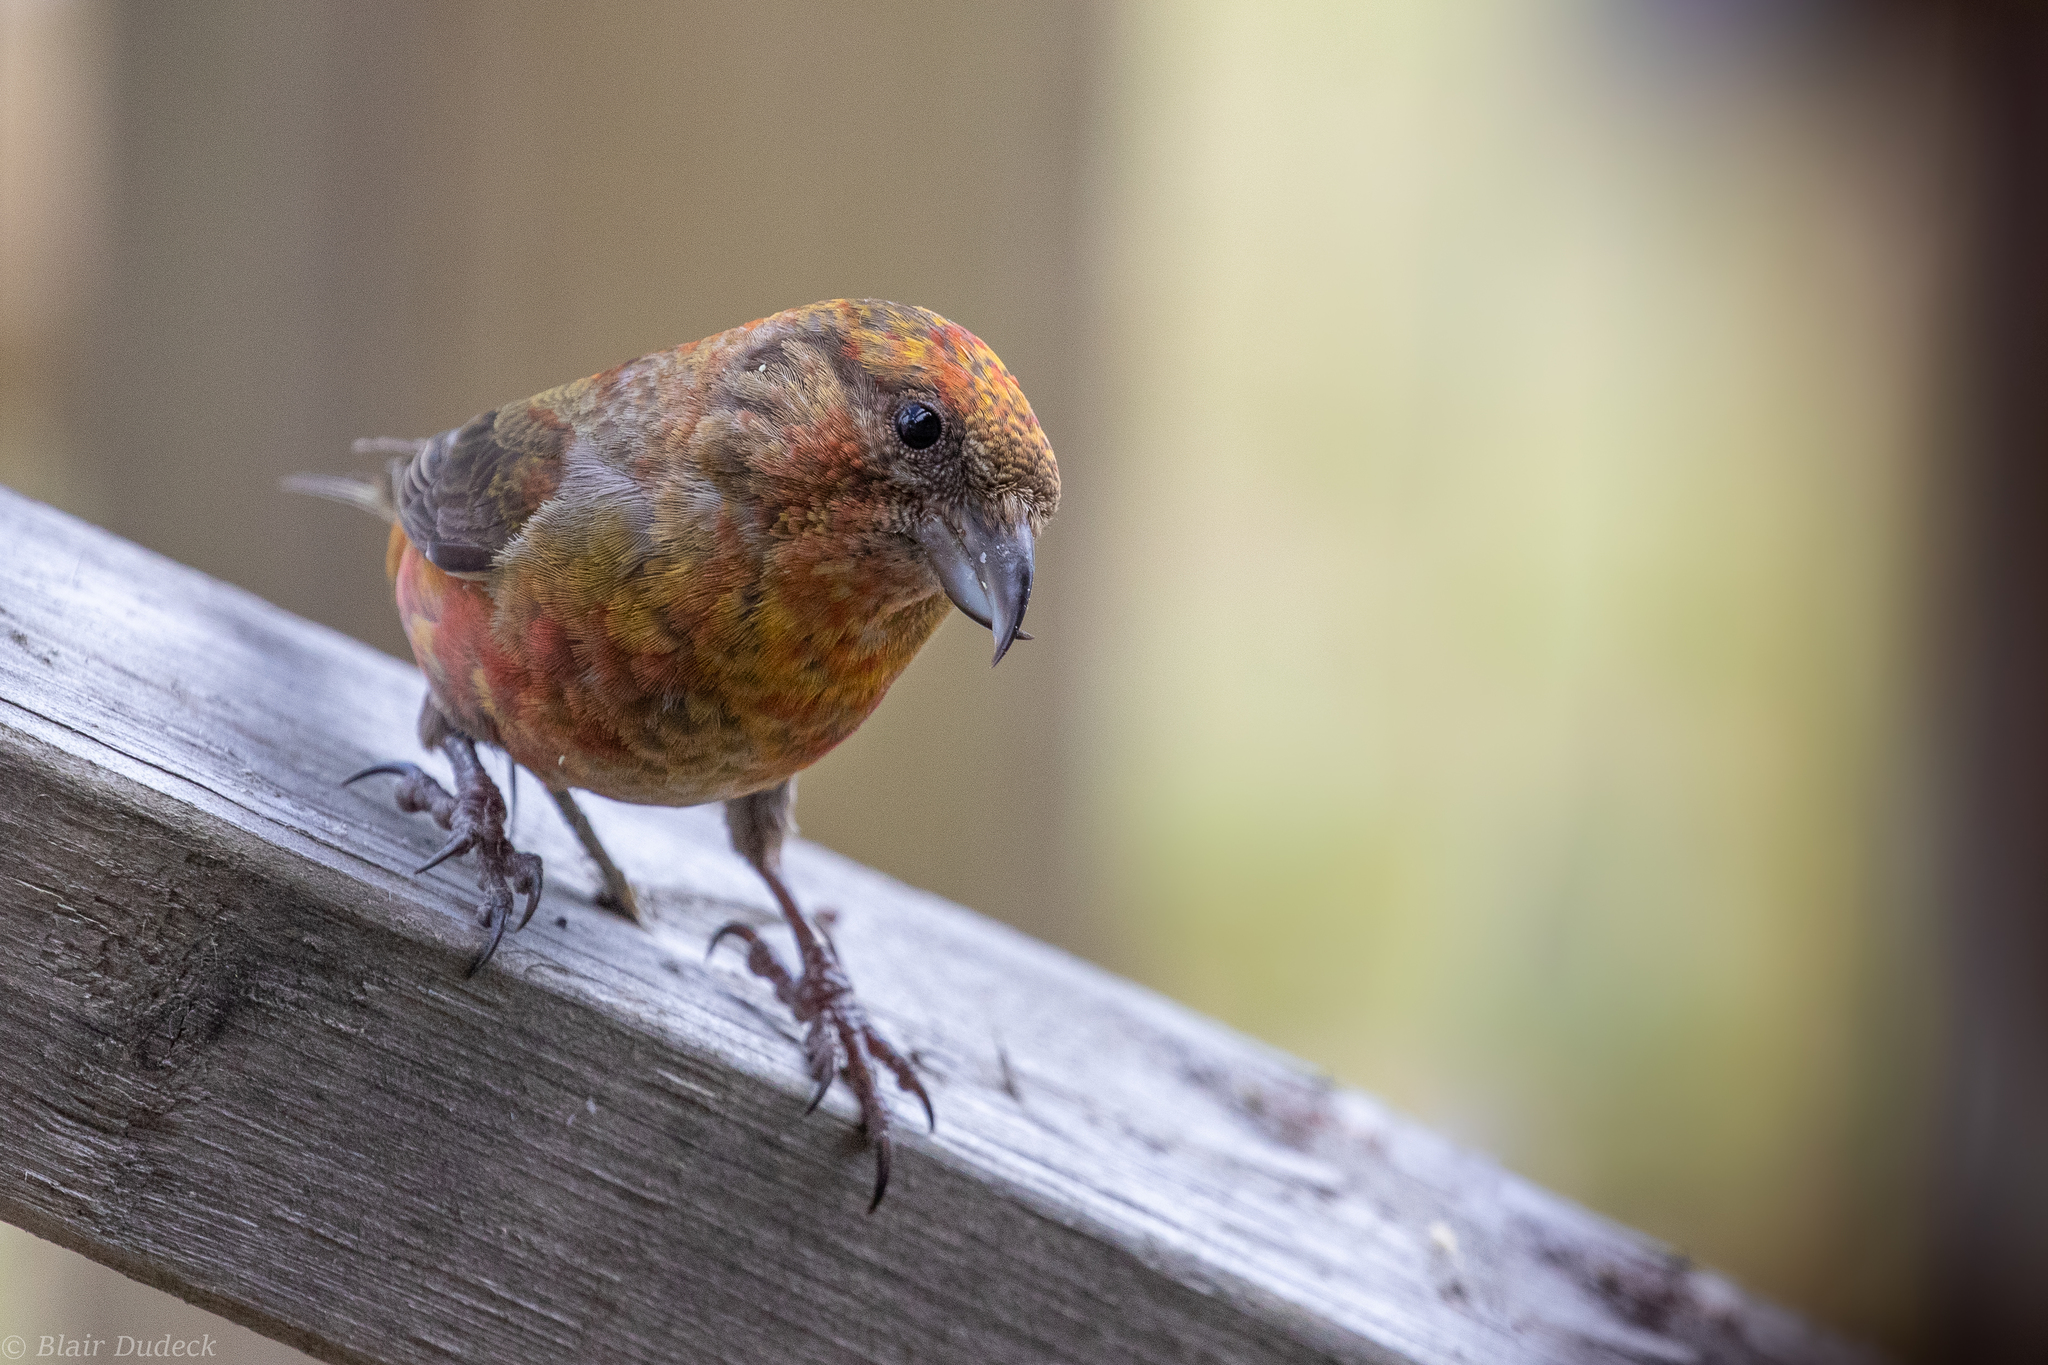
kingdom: Animalia
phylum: Chordata
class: Aves
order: Passeriformes
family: Fringillidae
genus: Loxia
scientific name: Loxia curvirostra
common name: Red crossbill
